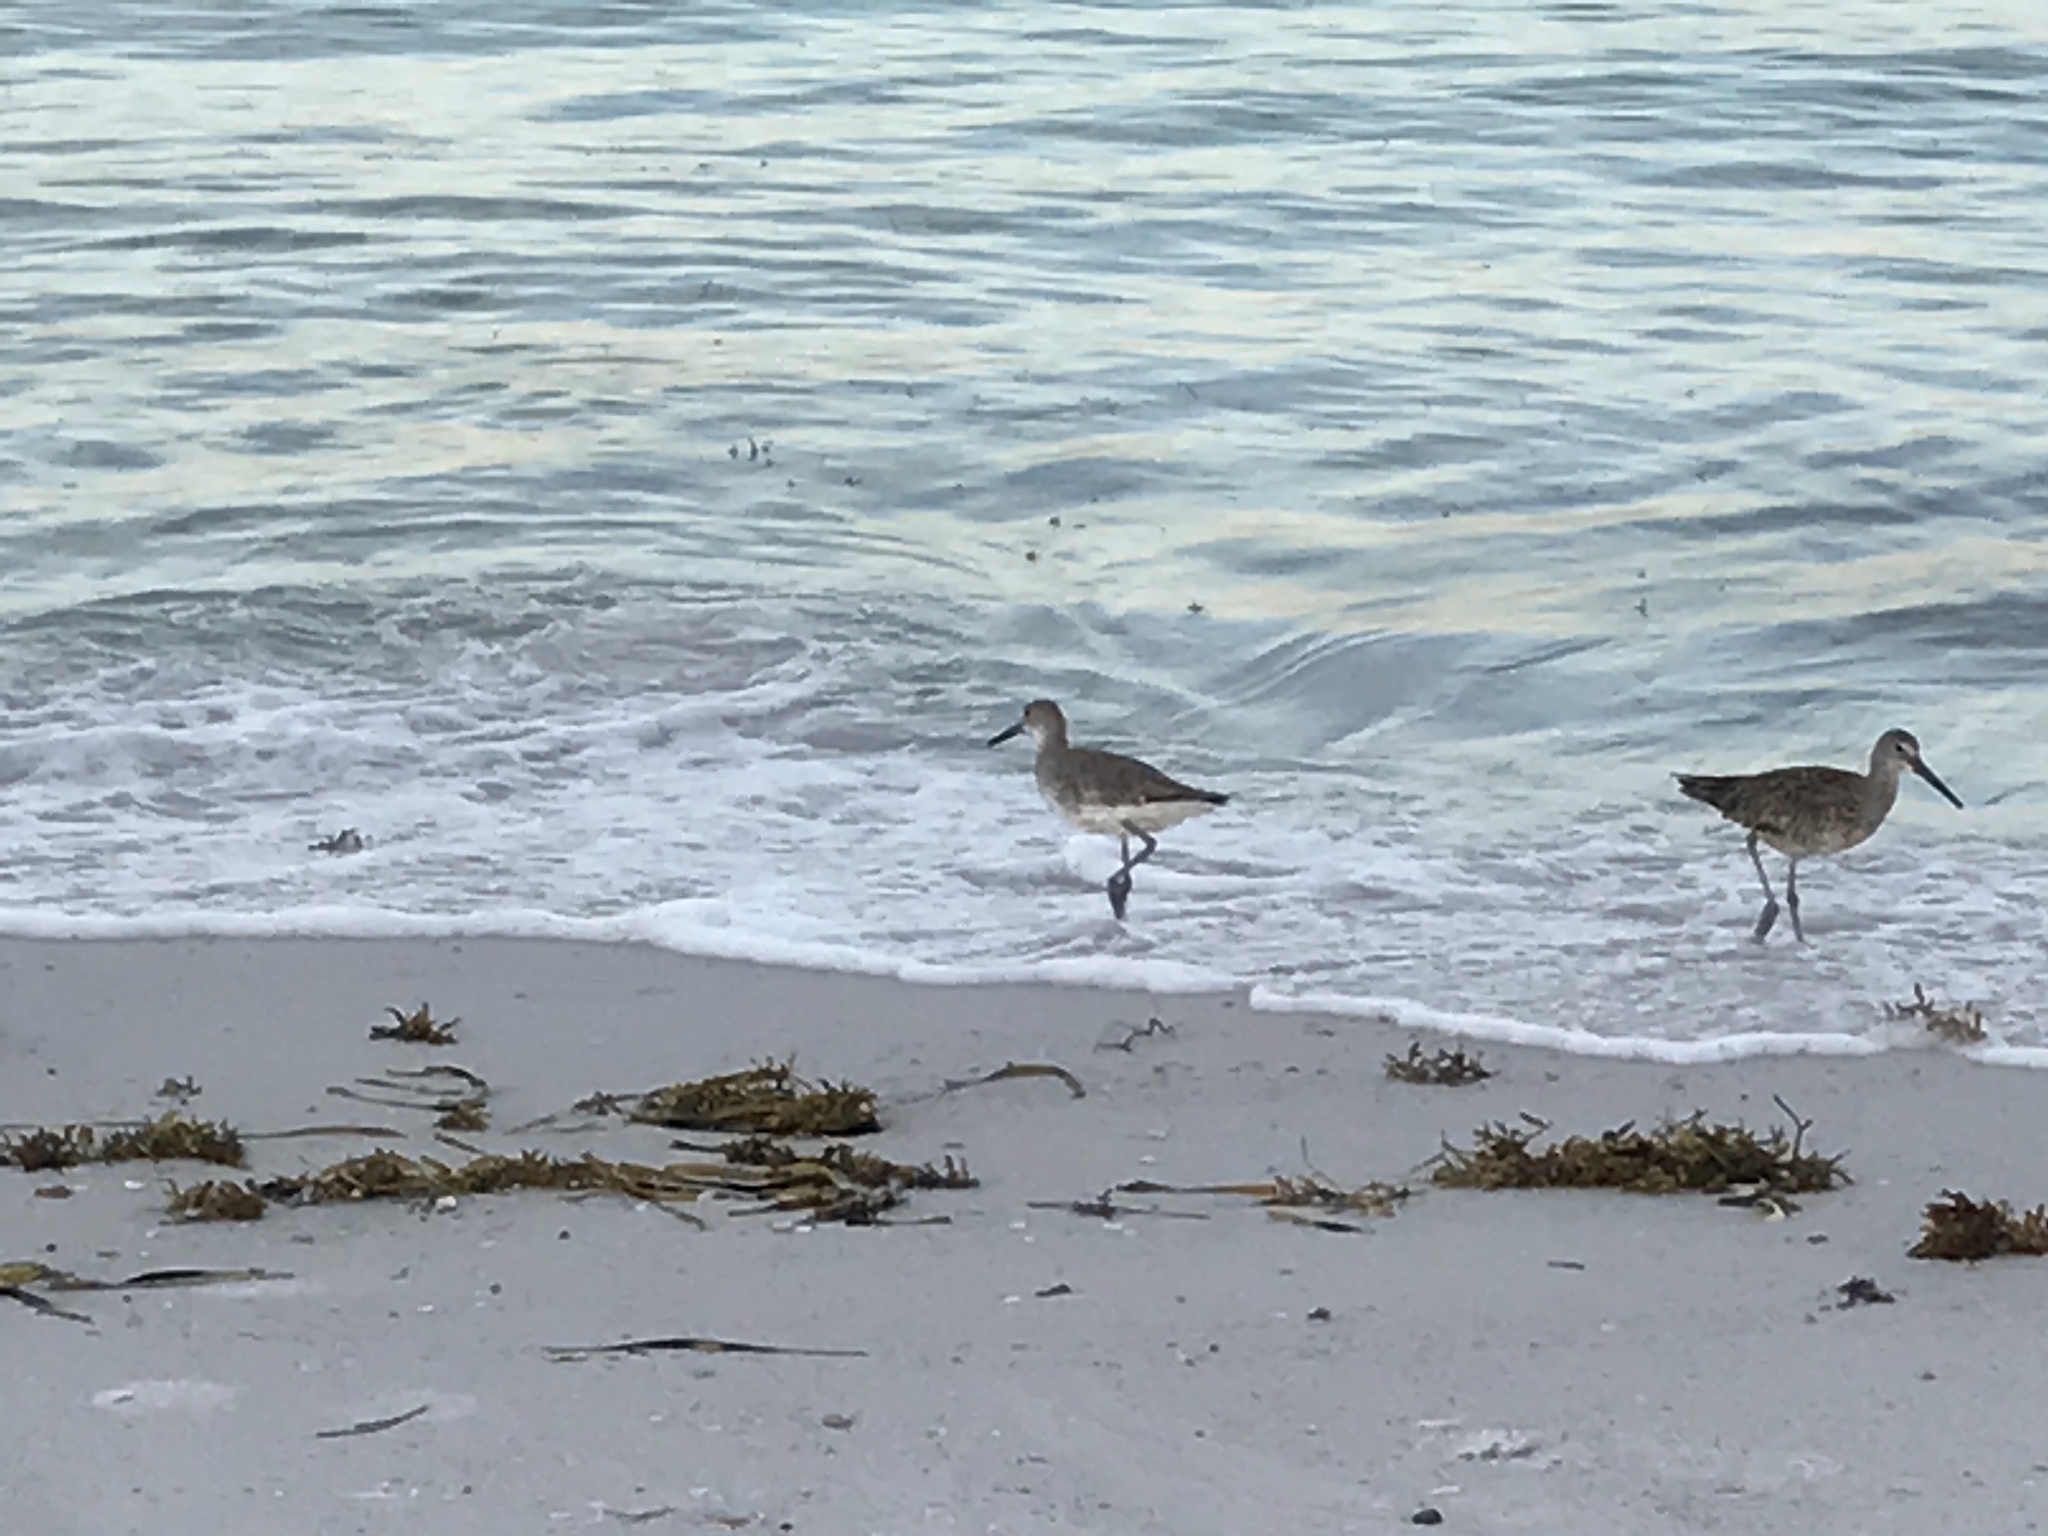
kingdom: Animalia
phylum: Chordata
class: Aves
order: Charadriiformes
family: Scolopacidae
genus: Tringa
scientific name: Tringa semipalmata
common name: Willet
